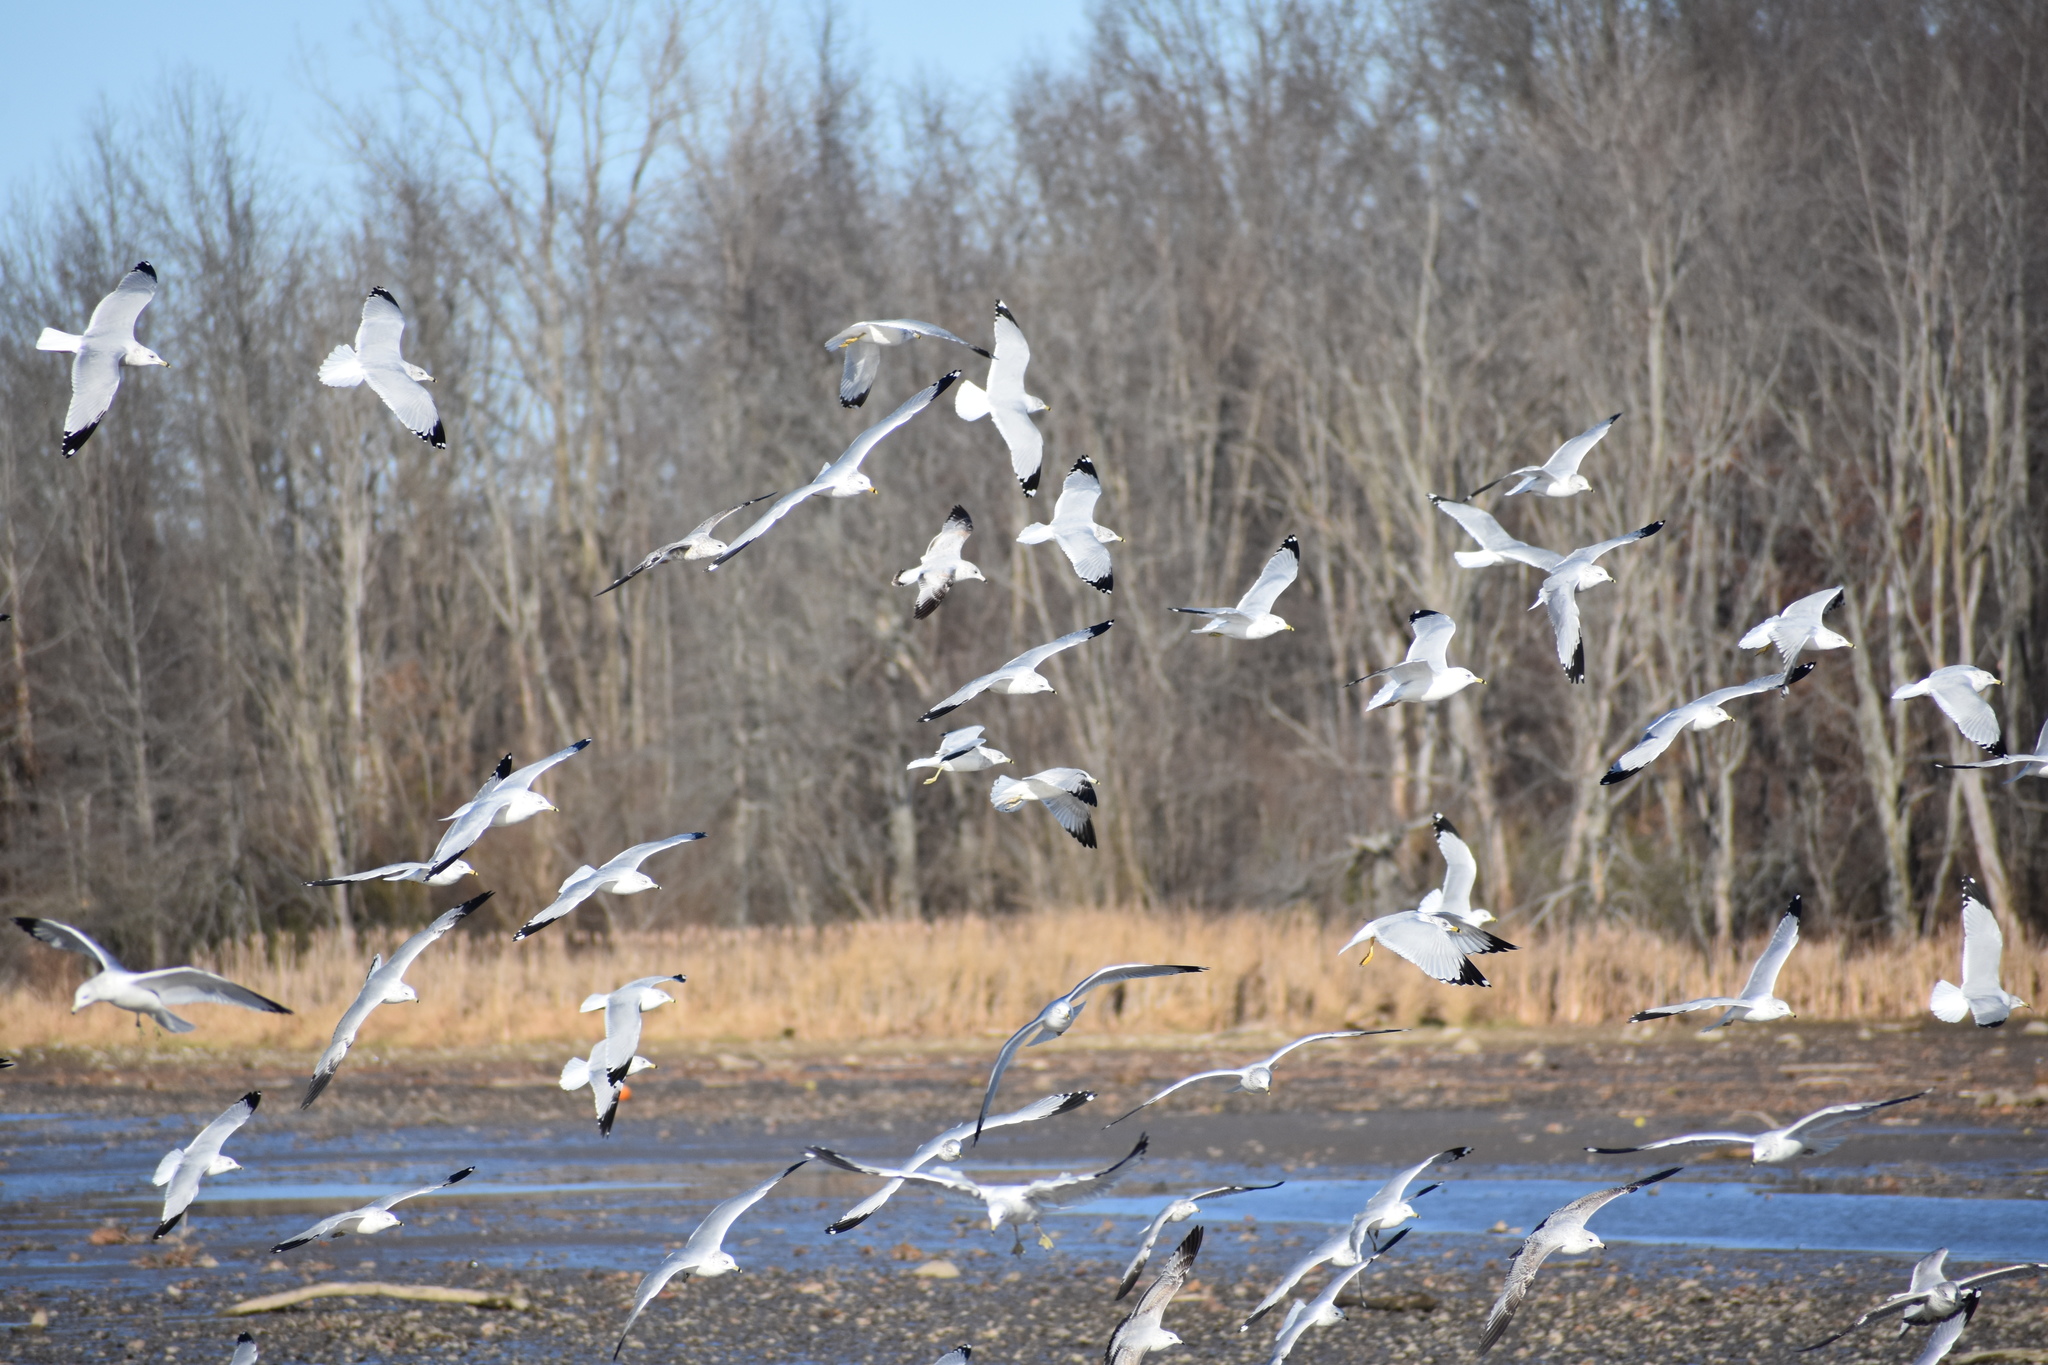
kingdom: Animalia
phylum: Chordata
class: Aves
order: Charadriiformes
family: Laridae
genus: Larus
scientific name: Larus delawarensis
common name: Ring-billed gull
